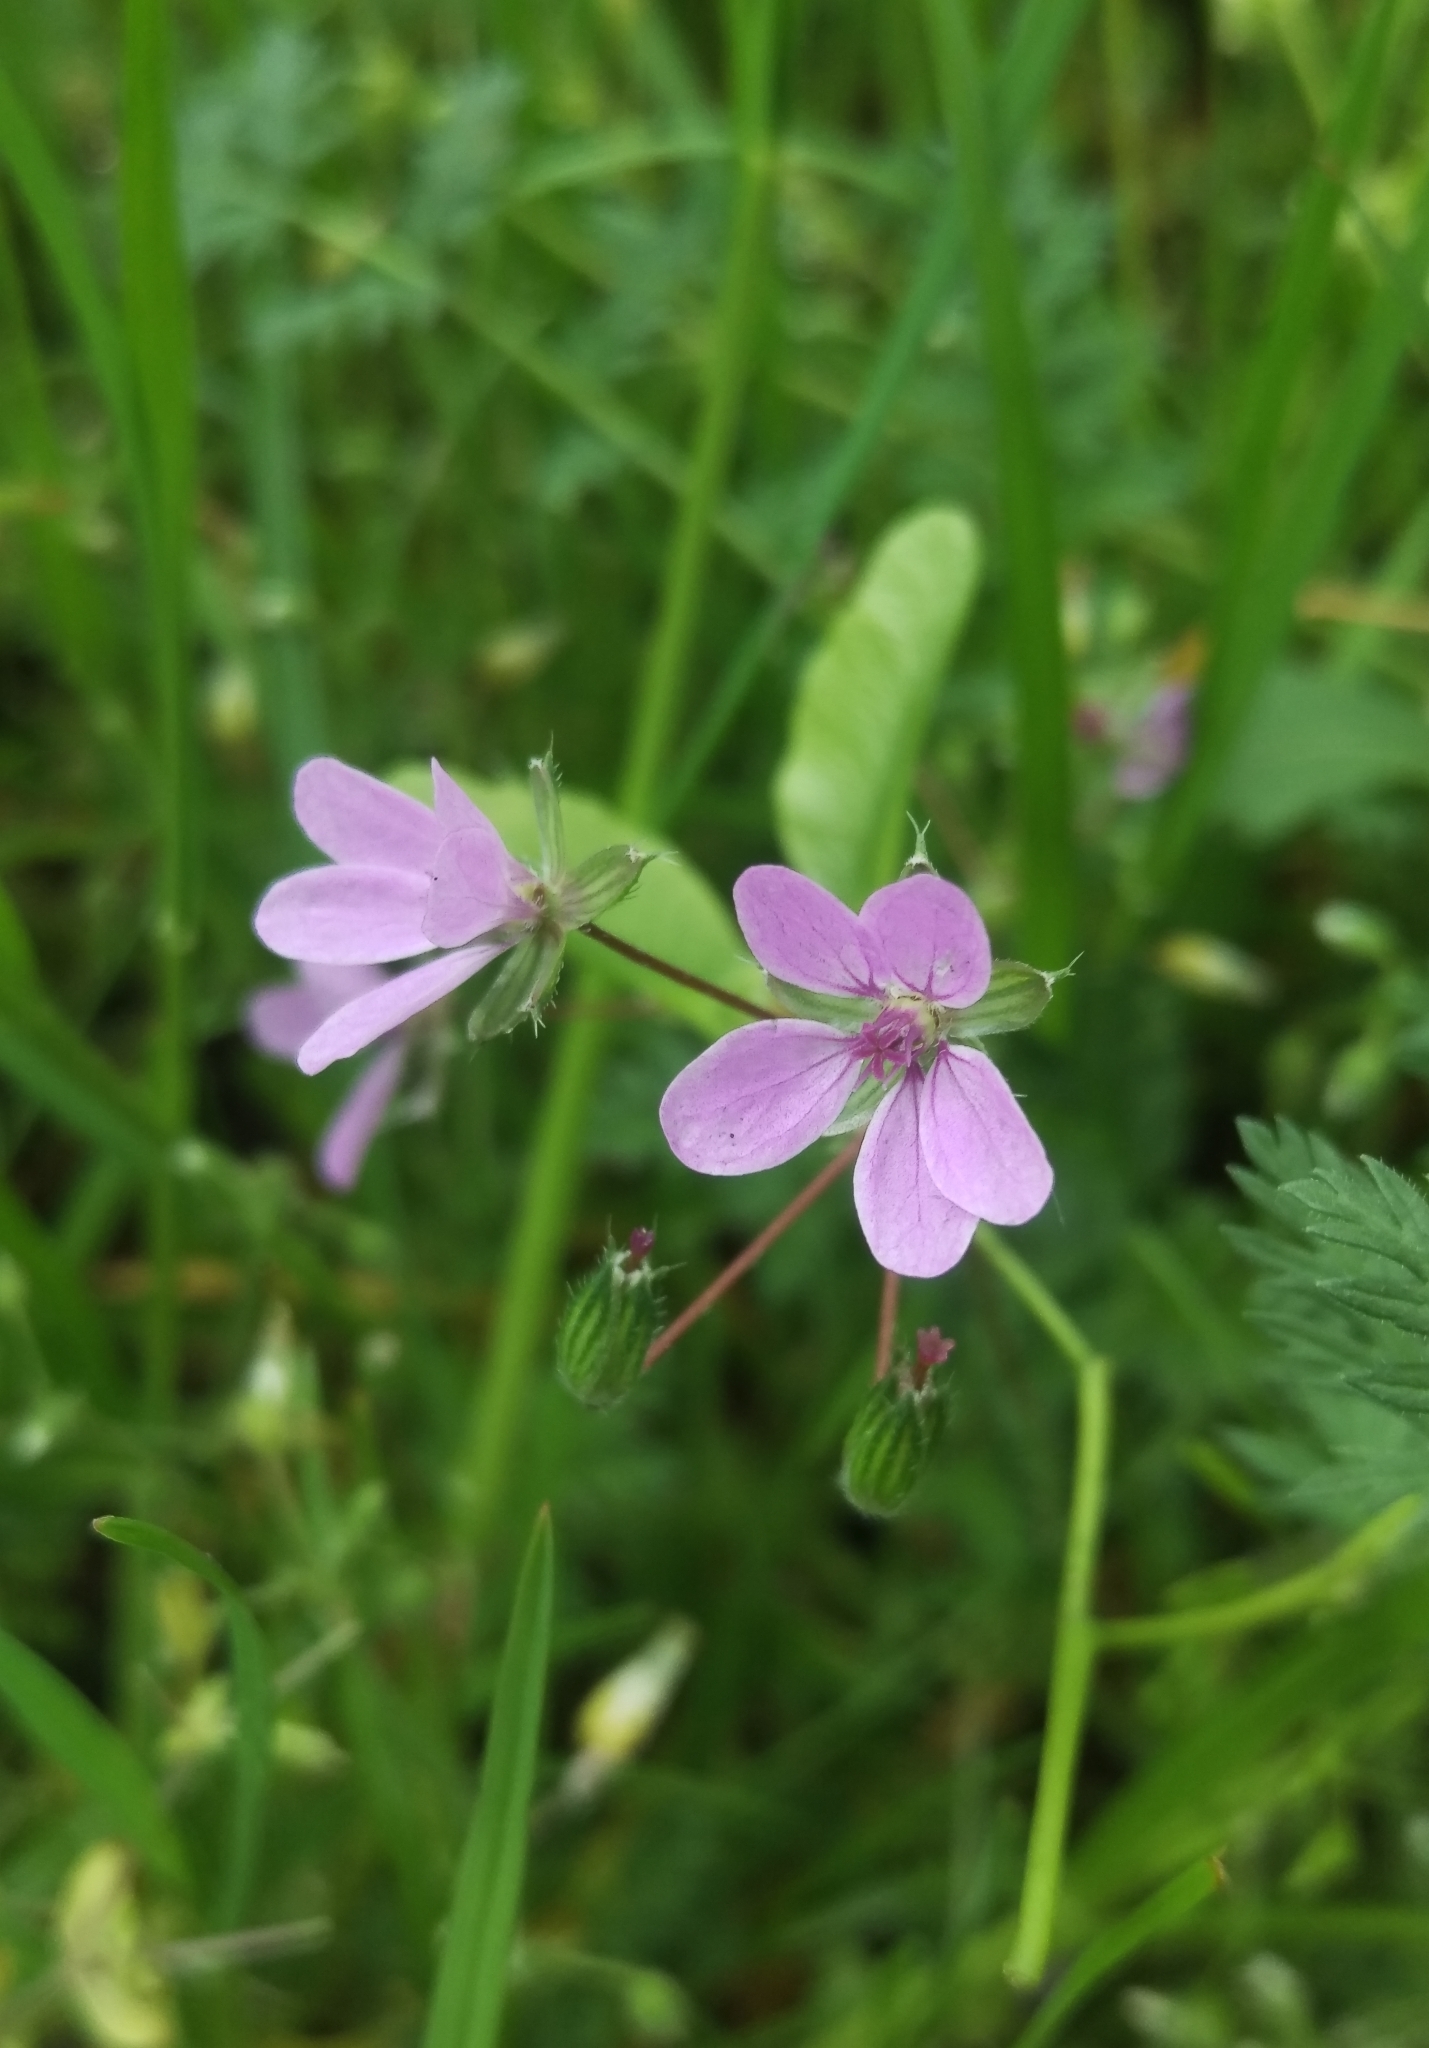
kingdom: Plantae
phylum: Tracheophyta
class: Magnoliopsida
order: Geraniales
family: Geraniaceae
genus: Erodium
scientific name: Erodium cicutarium
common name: Common stork's-bill
